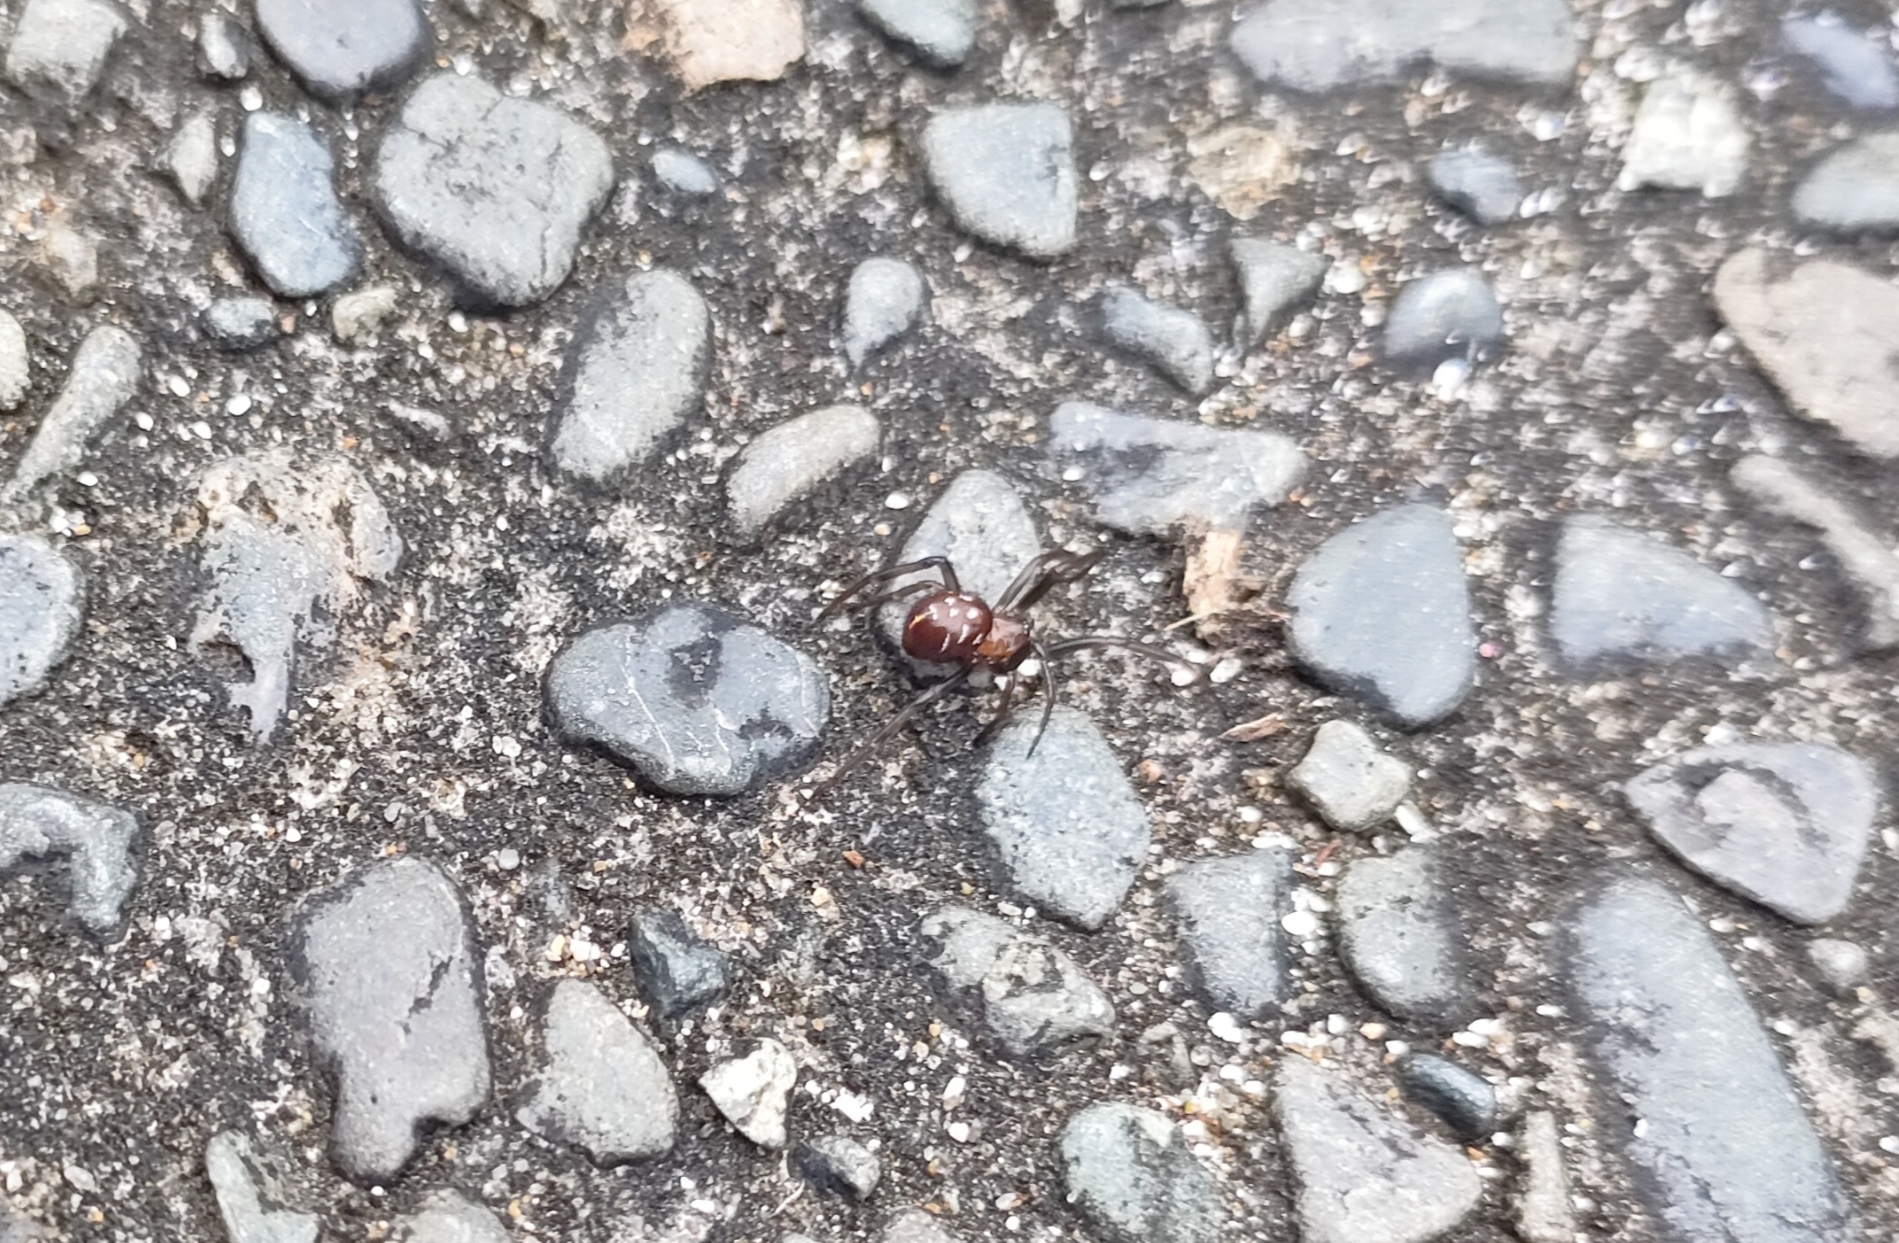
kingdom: Animalia
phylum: Arthropoda
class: Arachnida
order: Araneae
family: Theridiidae
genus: Steatoda
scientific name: Steatoda capensis
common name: Cobweb weaver
